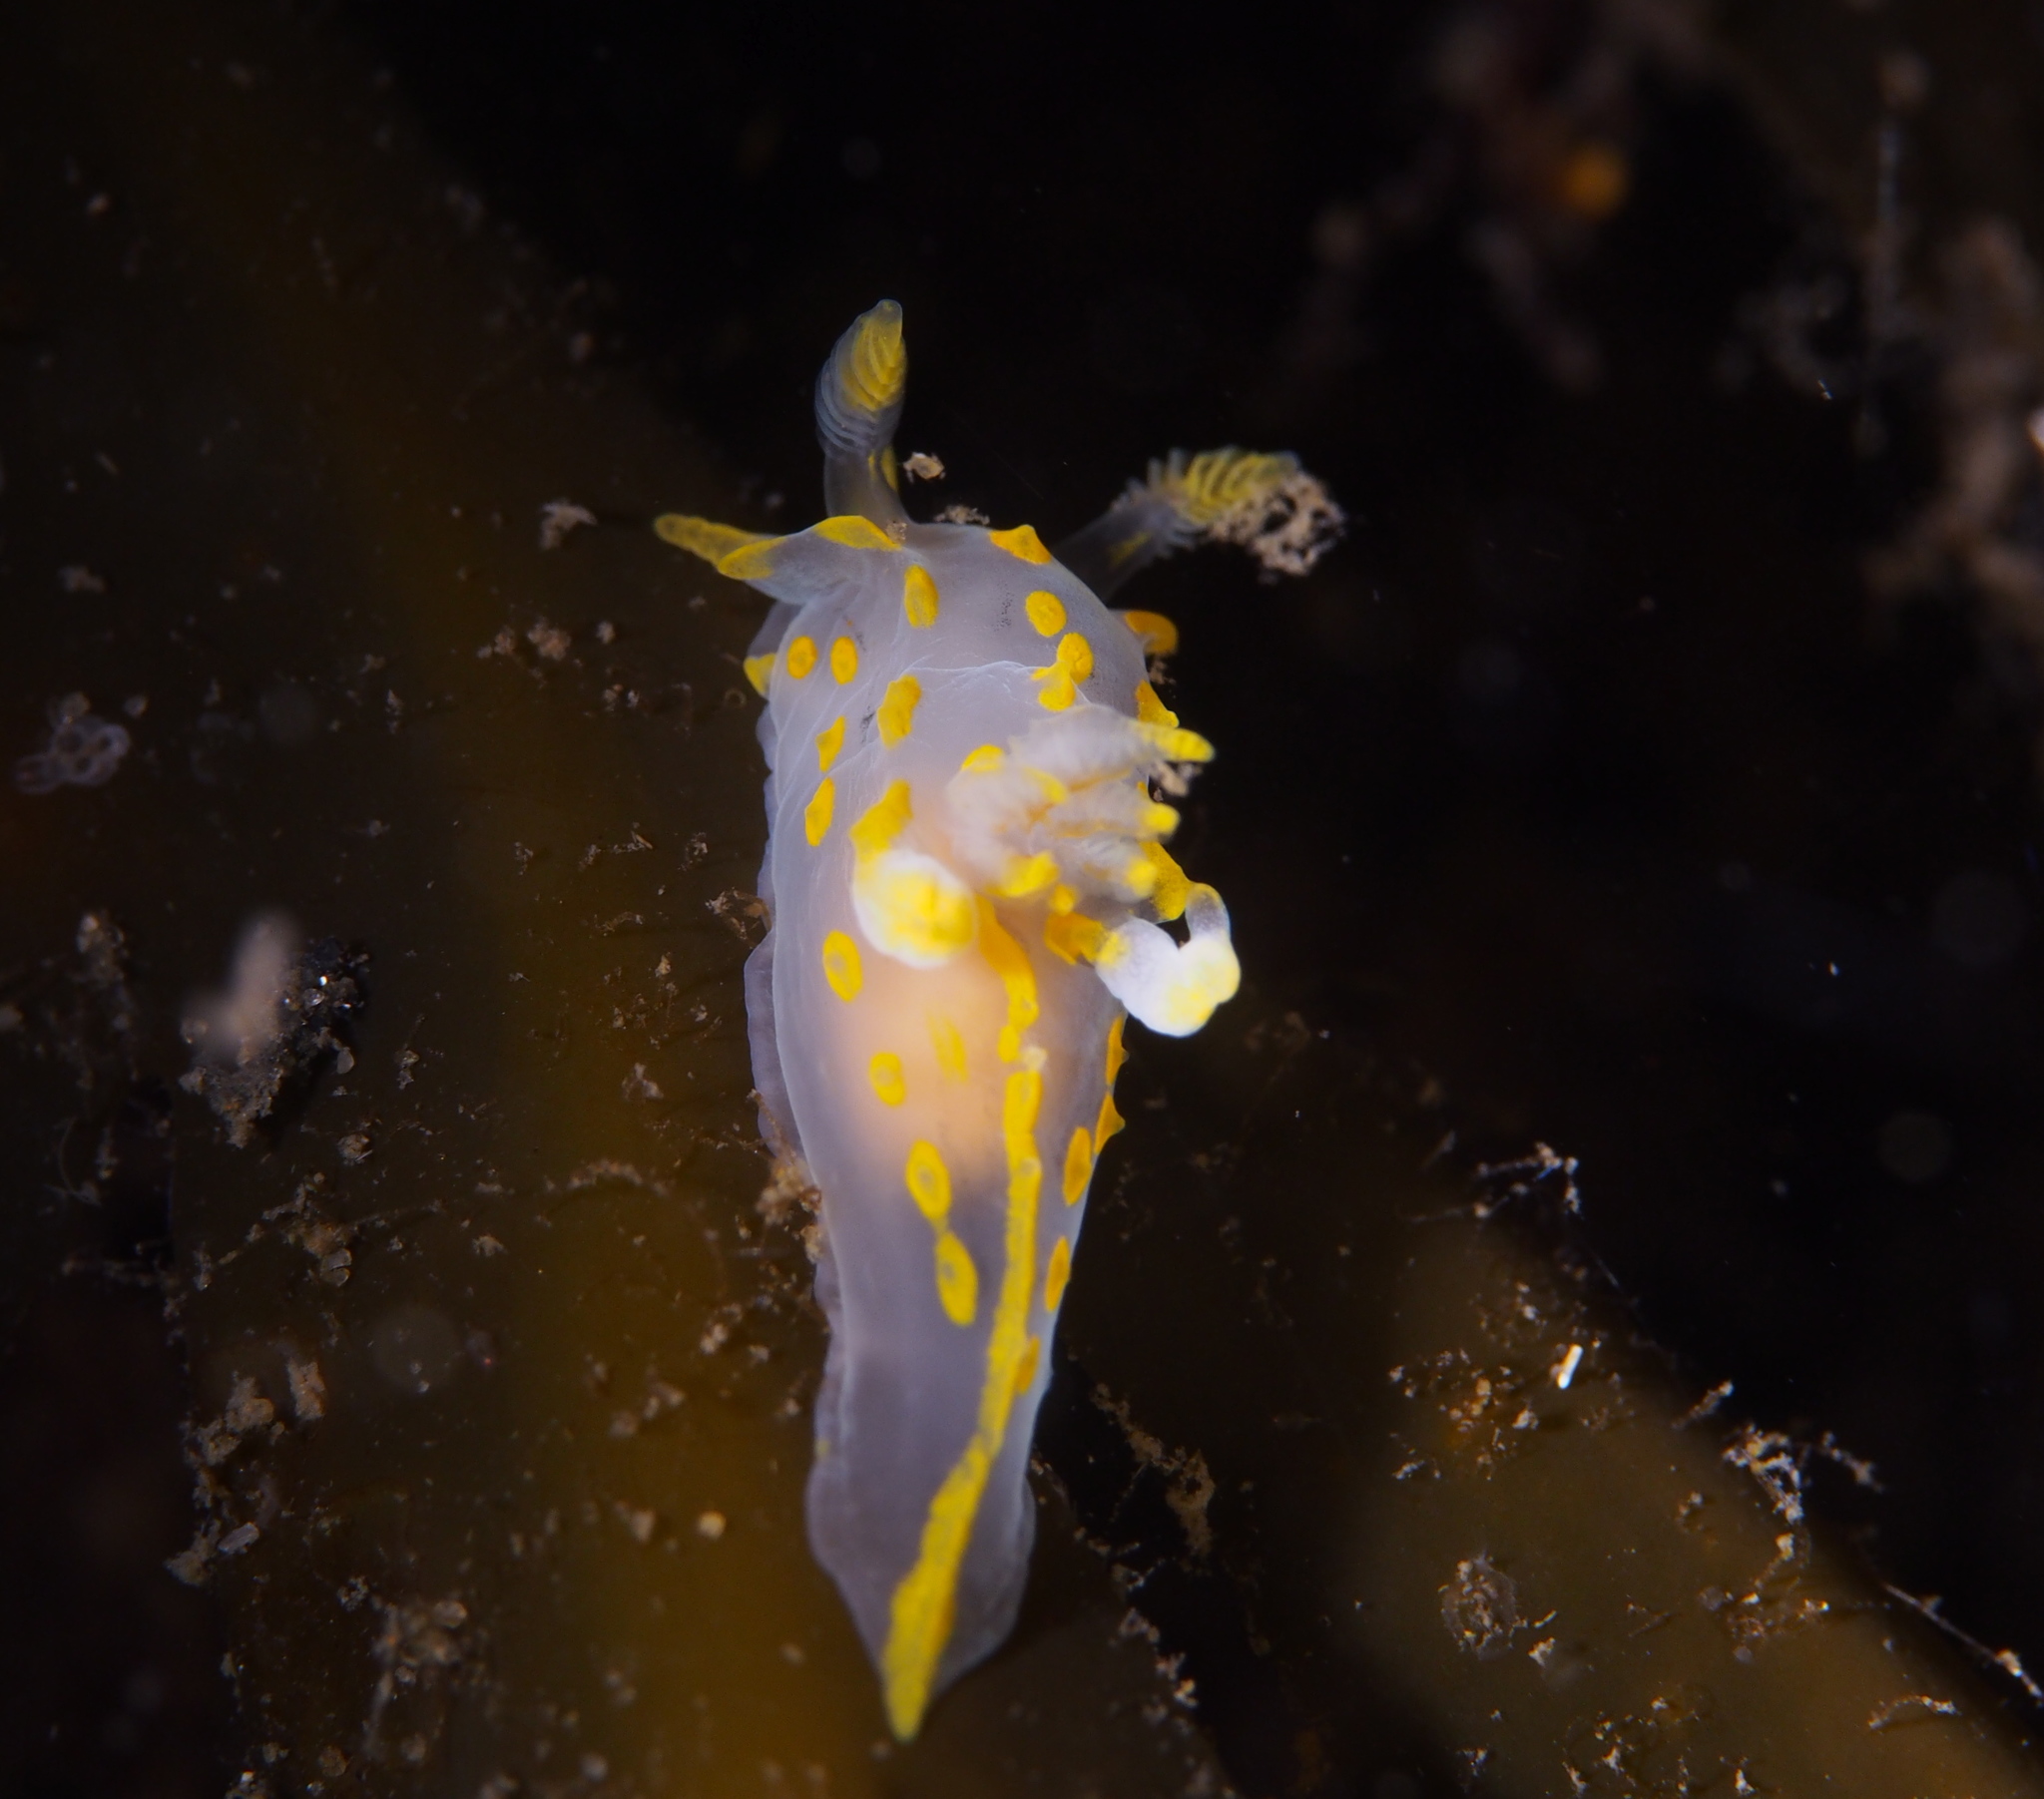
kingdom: Animalia
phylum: Mollusca
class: Gastropoda
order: Nudibranchia
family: Polyceridae
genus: Polycera
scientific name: Polycera quadrilineata
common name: Four-striped polycera
